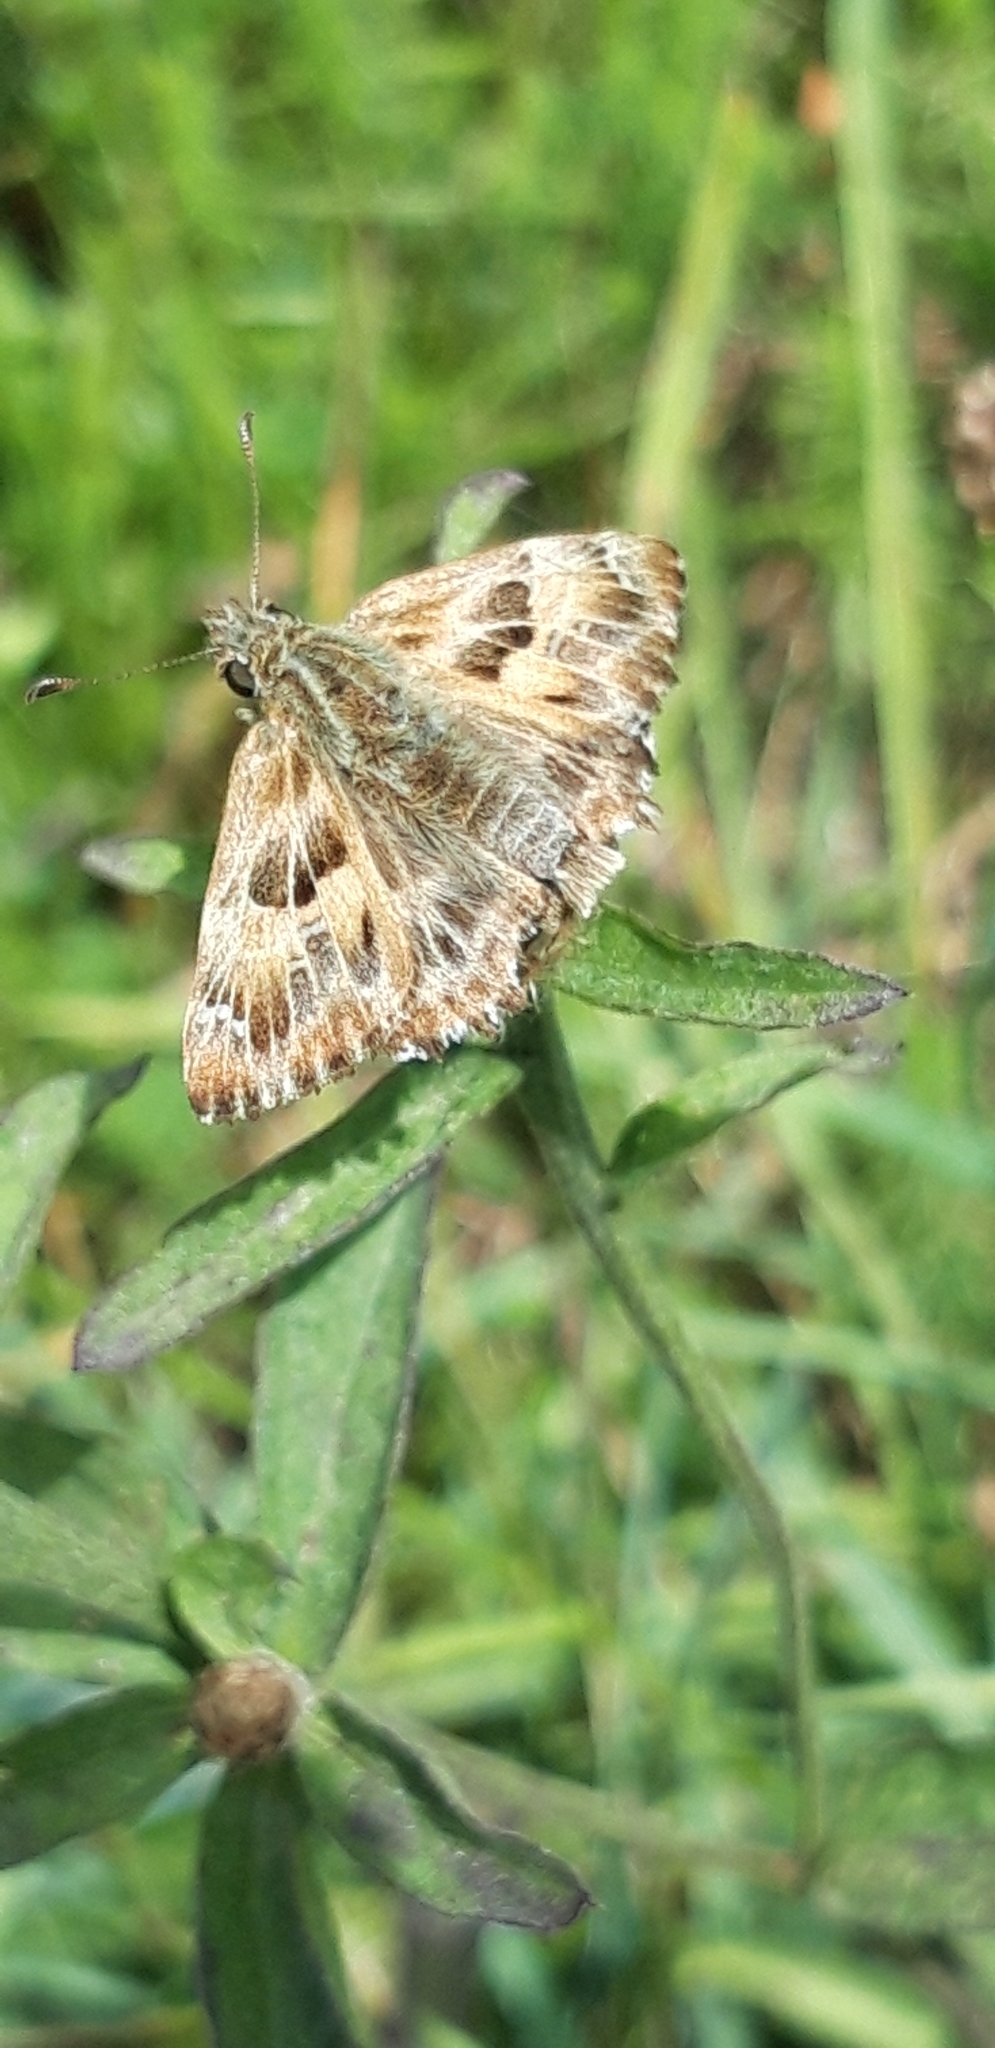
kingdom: Animalia
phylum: Arthropoda
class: Insecta
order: Lepidoptera
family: Hesperiidae
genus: Carcharodus
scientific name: Carcharodus alceae
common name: Mallow skipper
